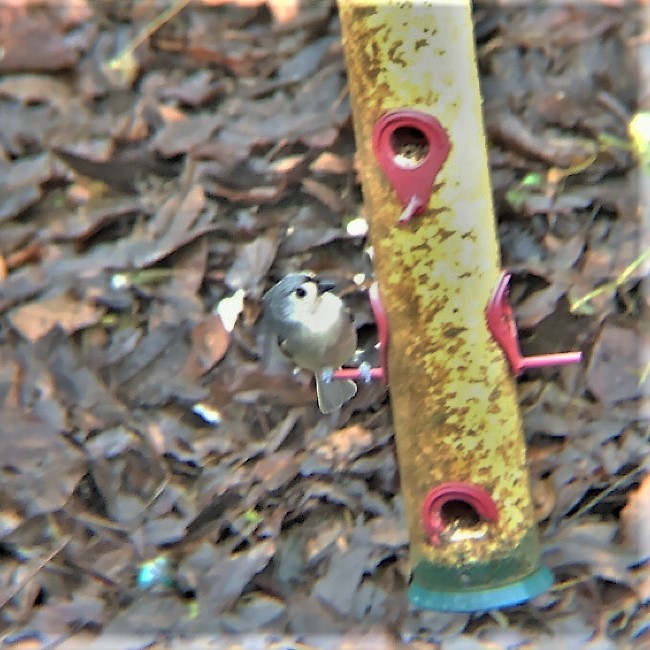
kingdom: Animalia
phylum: Chordata
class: Aves
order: Passeriformes
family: Paridae
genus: Baeolophus
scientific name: Baeolophus bicolor
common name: Tufted titmouse
